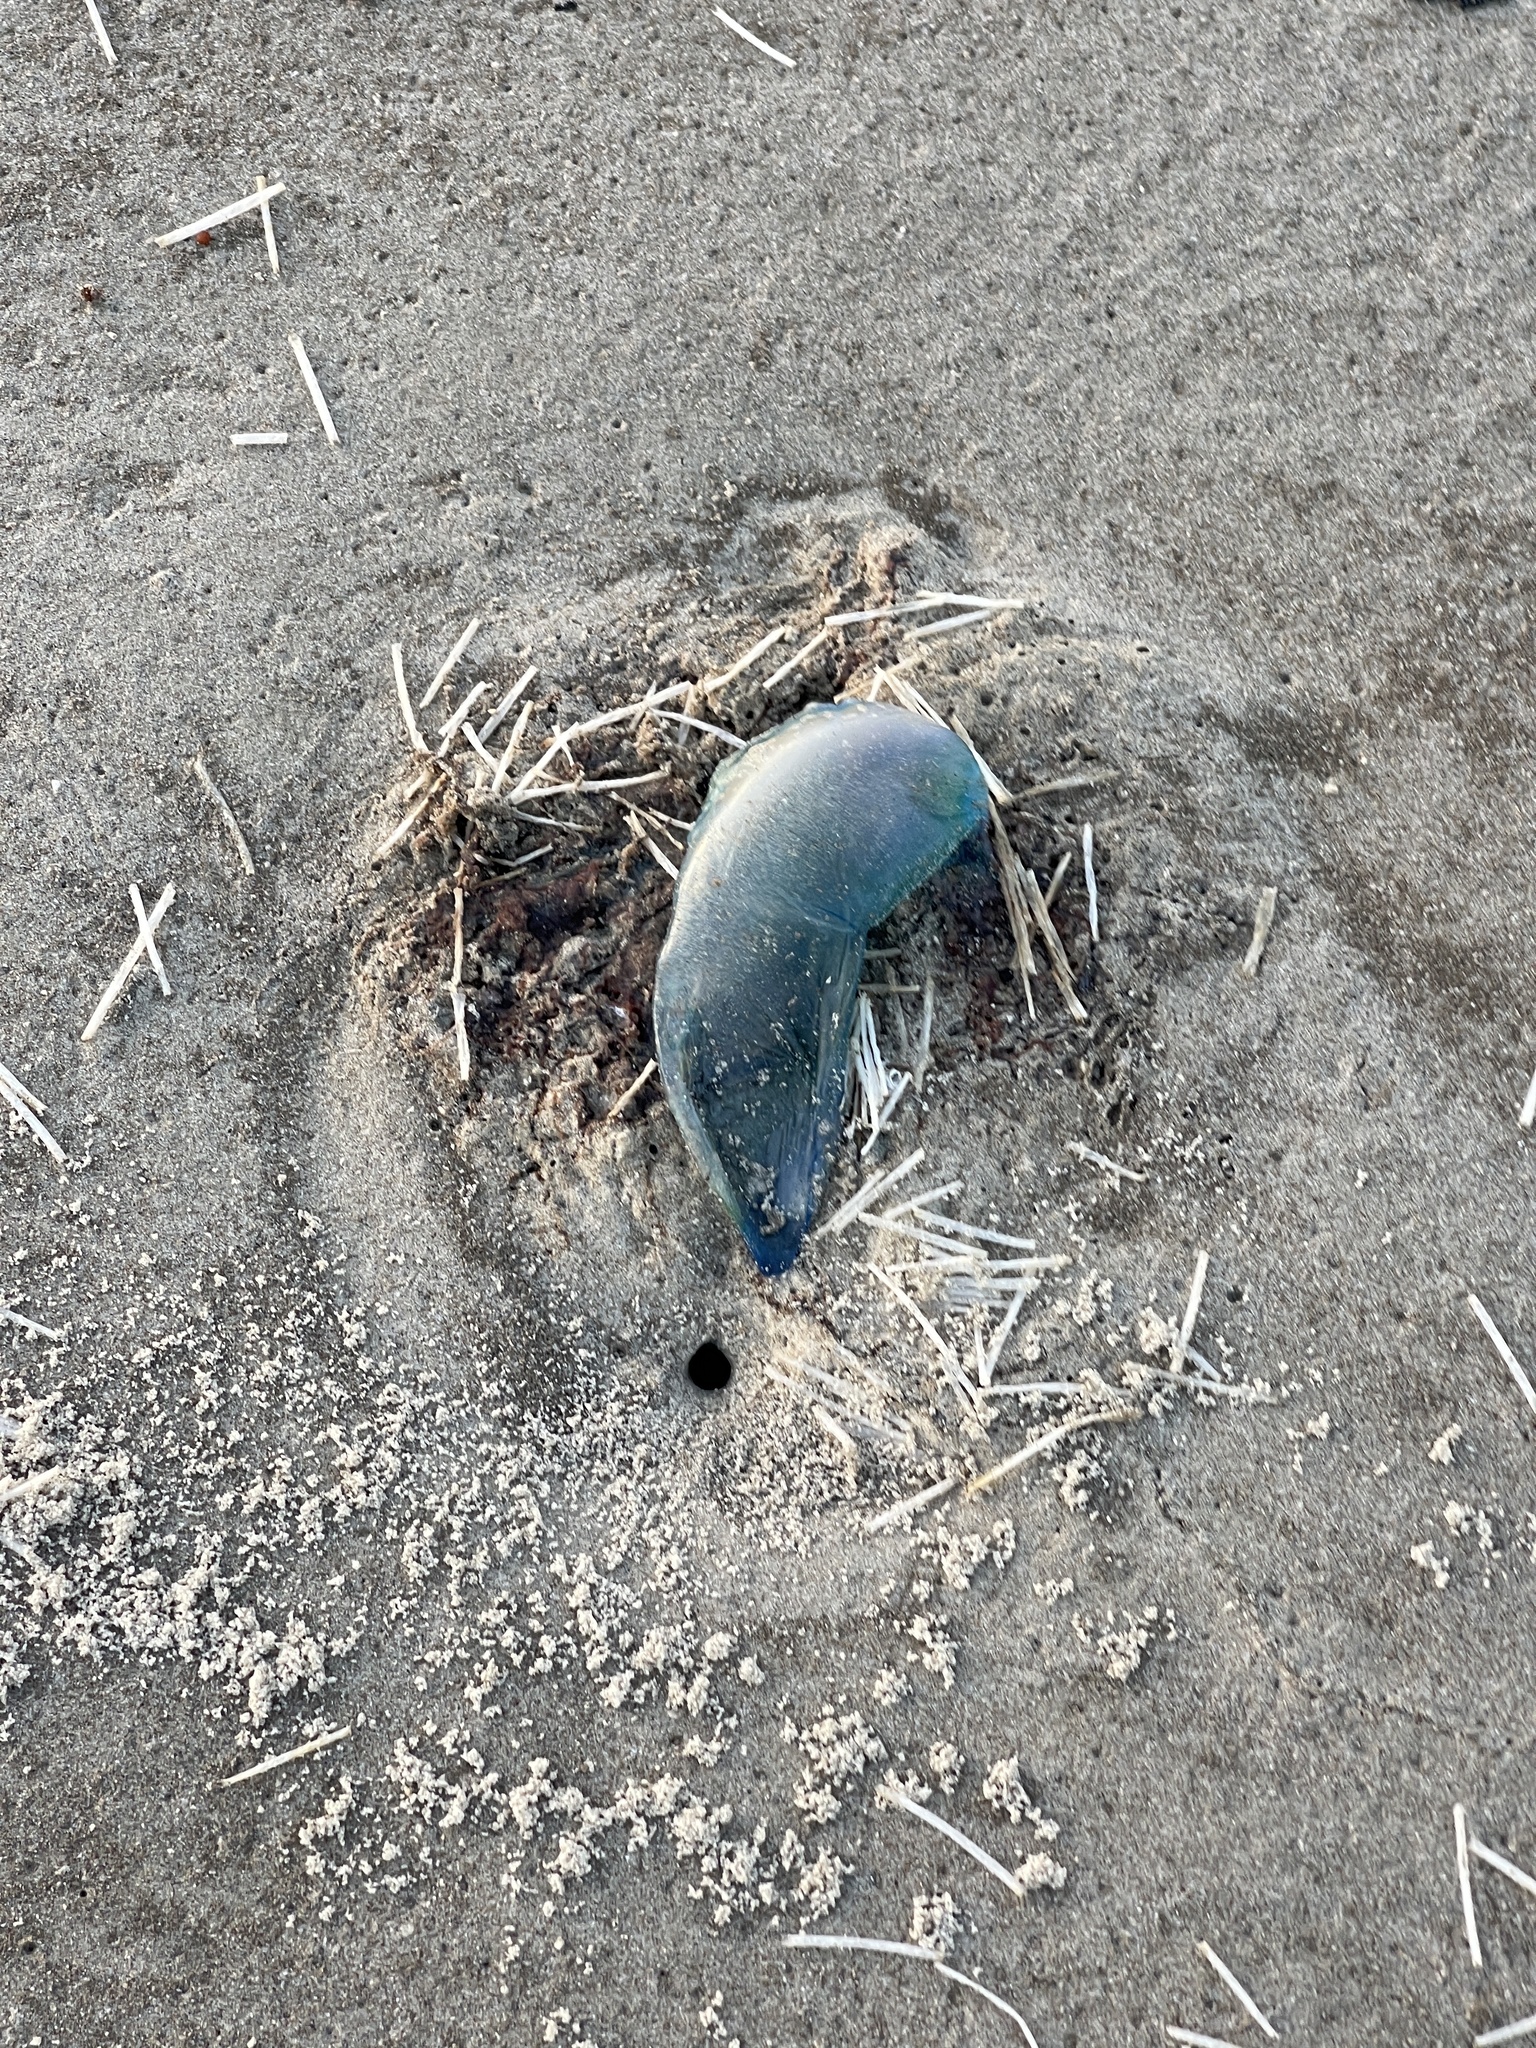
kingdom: Animalia
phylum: Cnidaria
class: Hydrozoa
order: Siphonophorae
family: Physaliidae
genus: Physalia
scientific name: Physalia physalis
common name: Portuguese man-of-war
